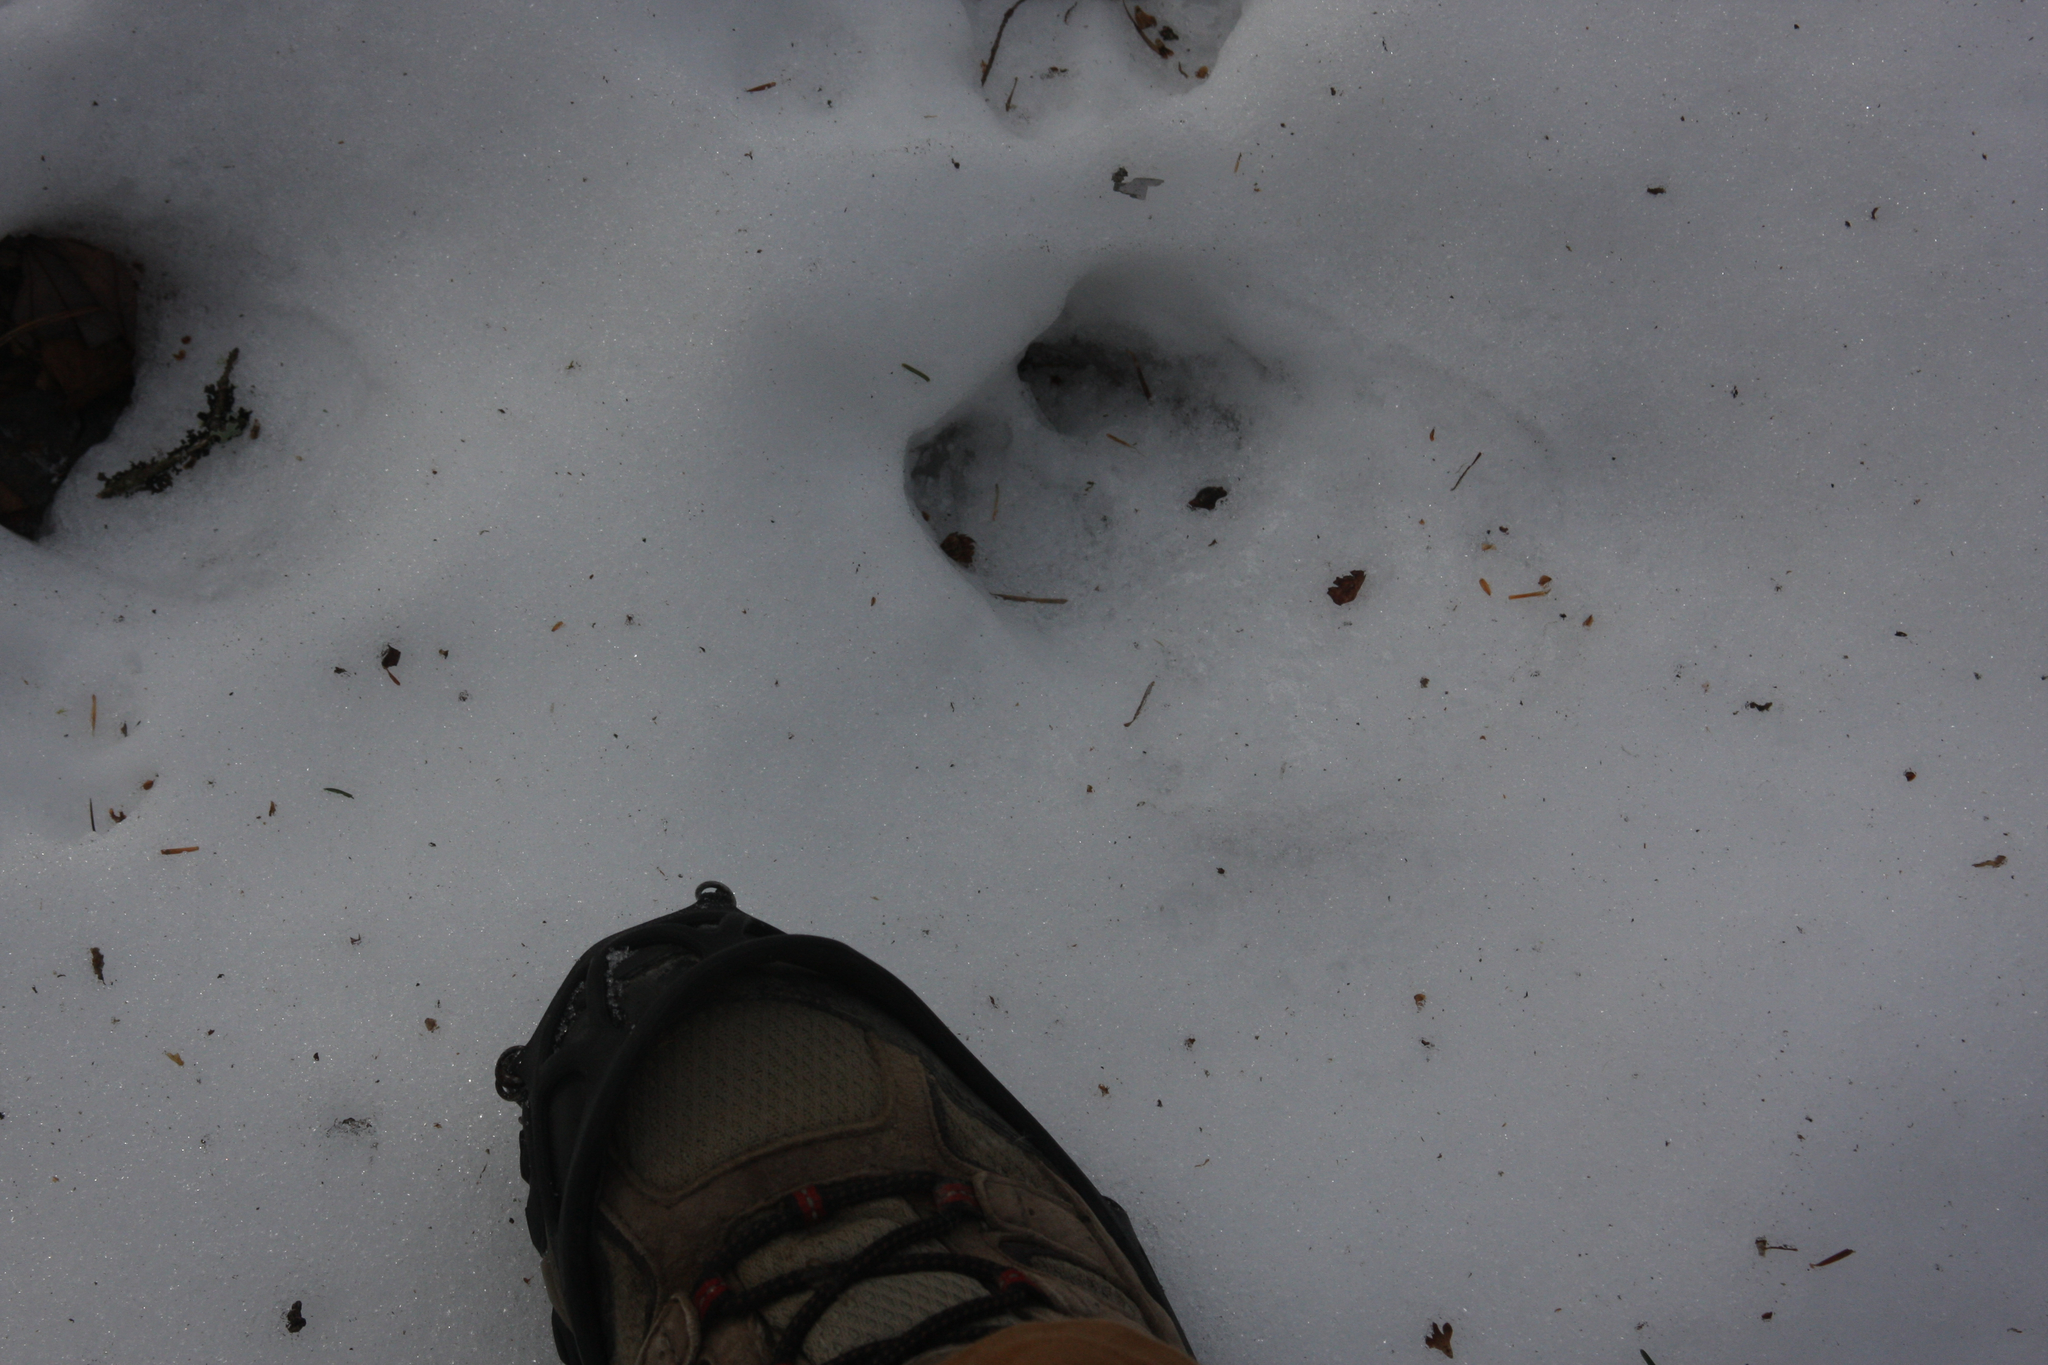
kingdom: Animalia
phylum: Chordata
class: Mammalia
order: Artiodactyla
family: Cervidae
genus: Odocoileus
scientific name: Odocoileus virginianus
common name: White-tailed deer
